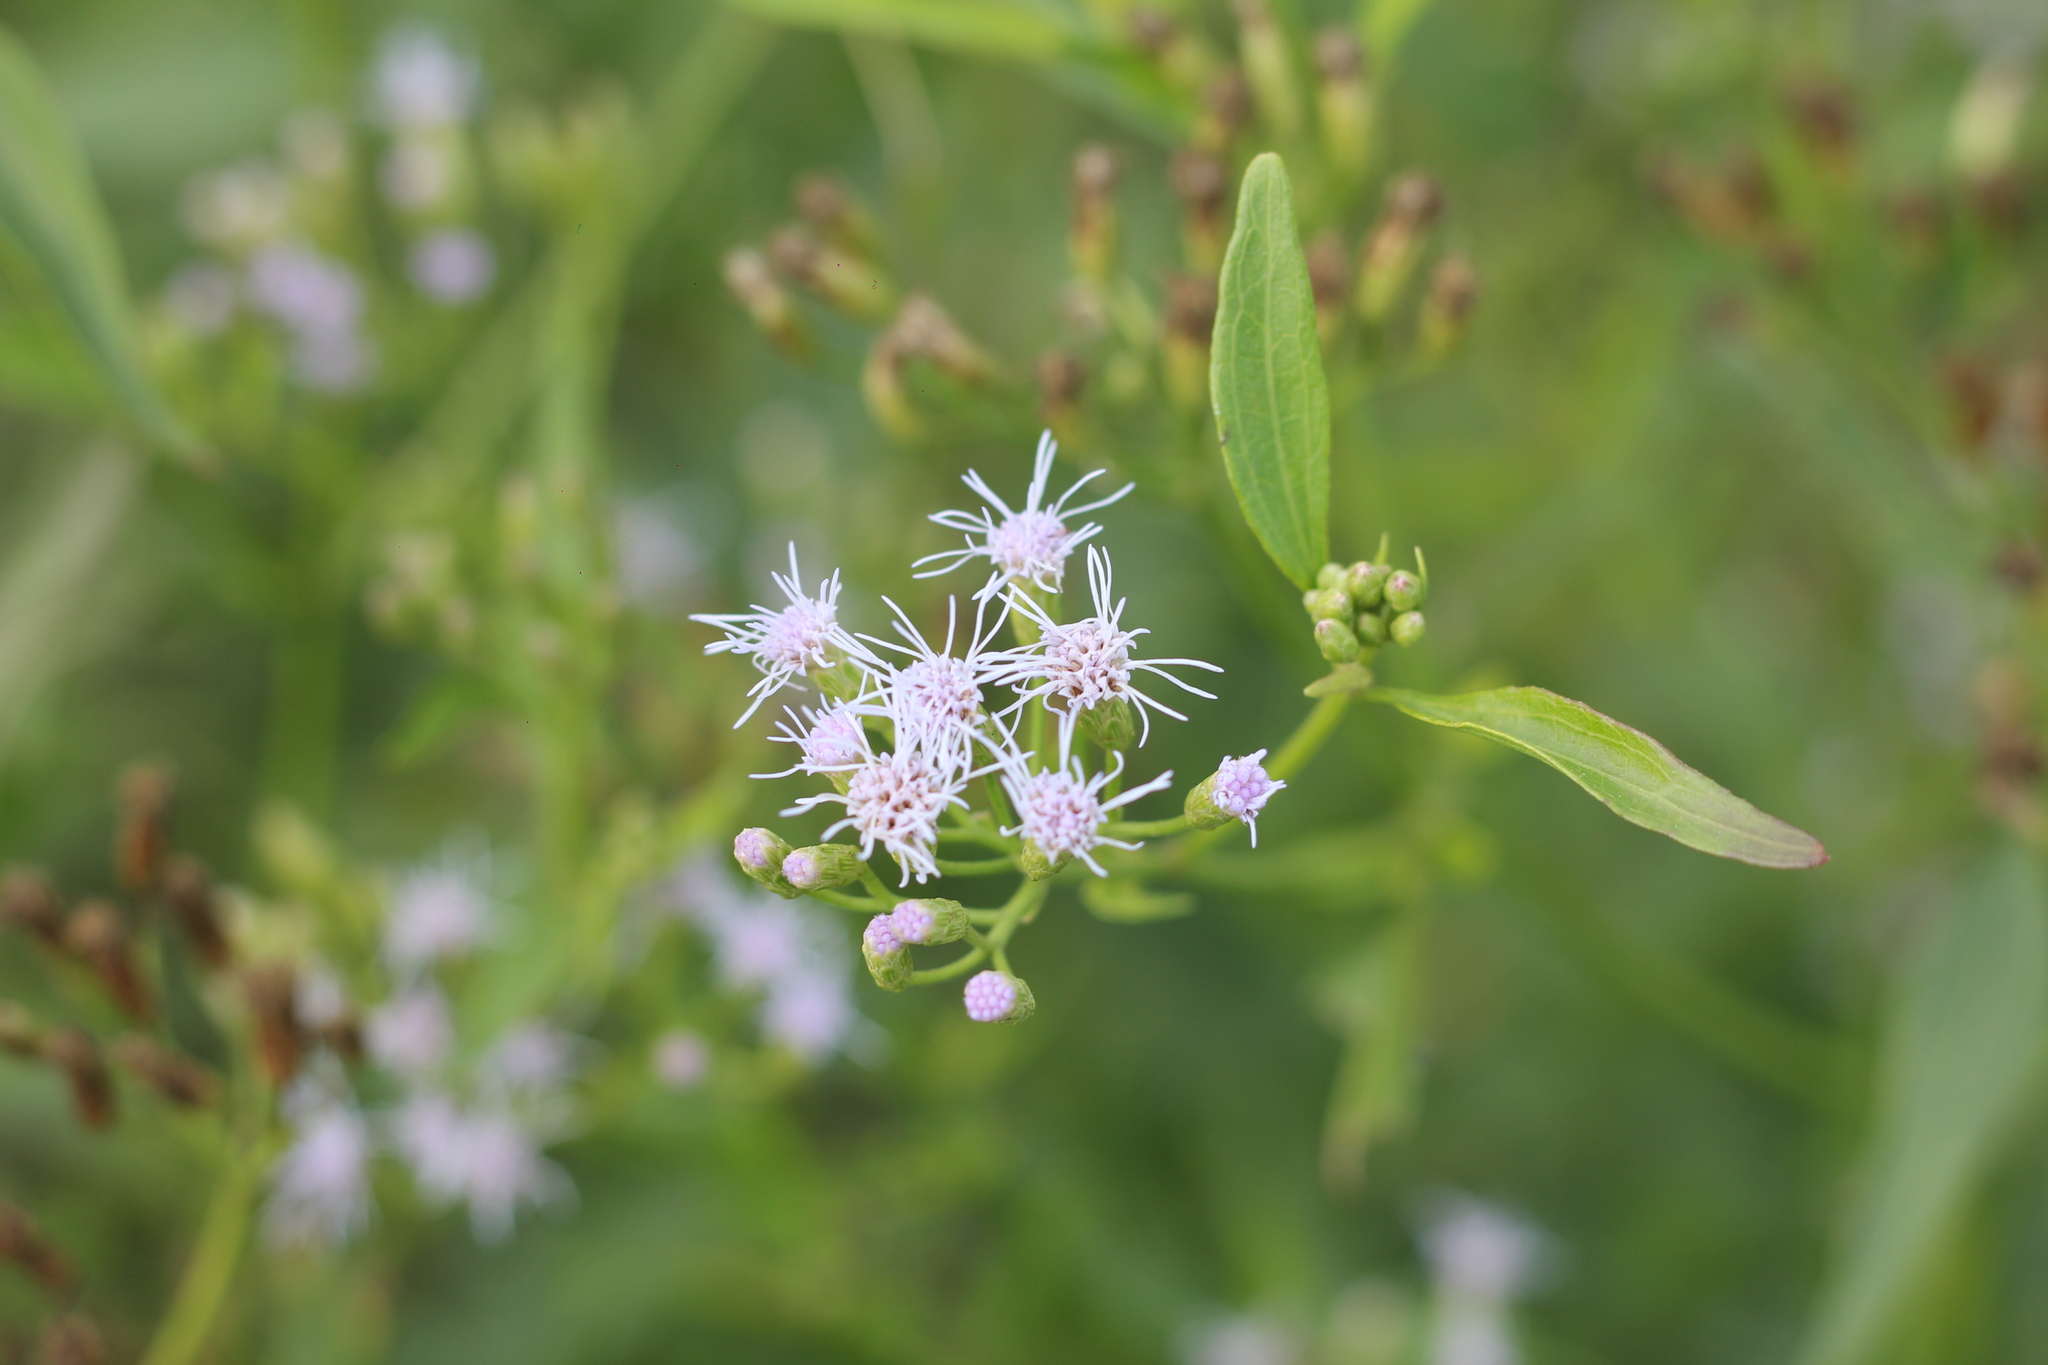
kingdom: Plantae
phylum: Tracheophyta
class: Magnoliopsida
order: Asterales
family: Asteraceae
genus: Chromolaena
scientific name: Chromolaena christieana
